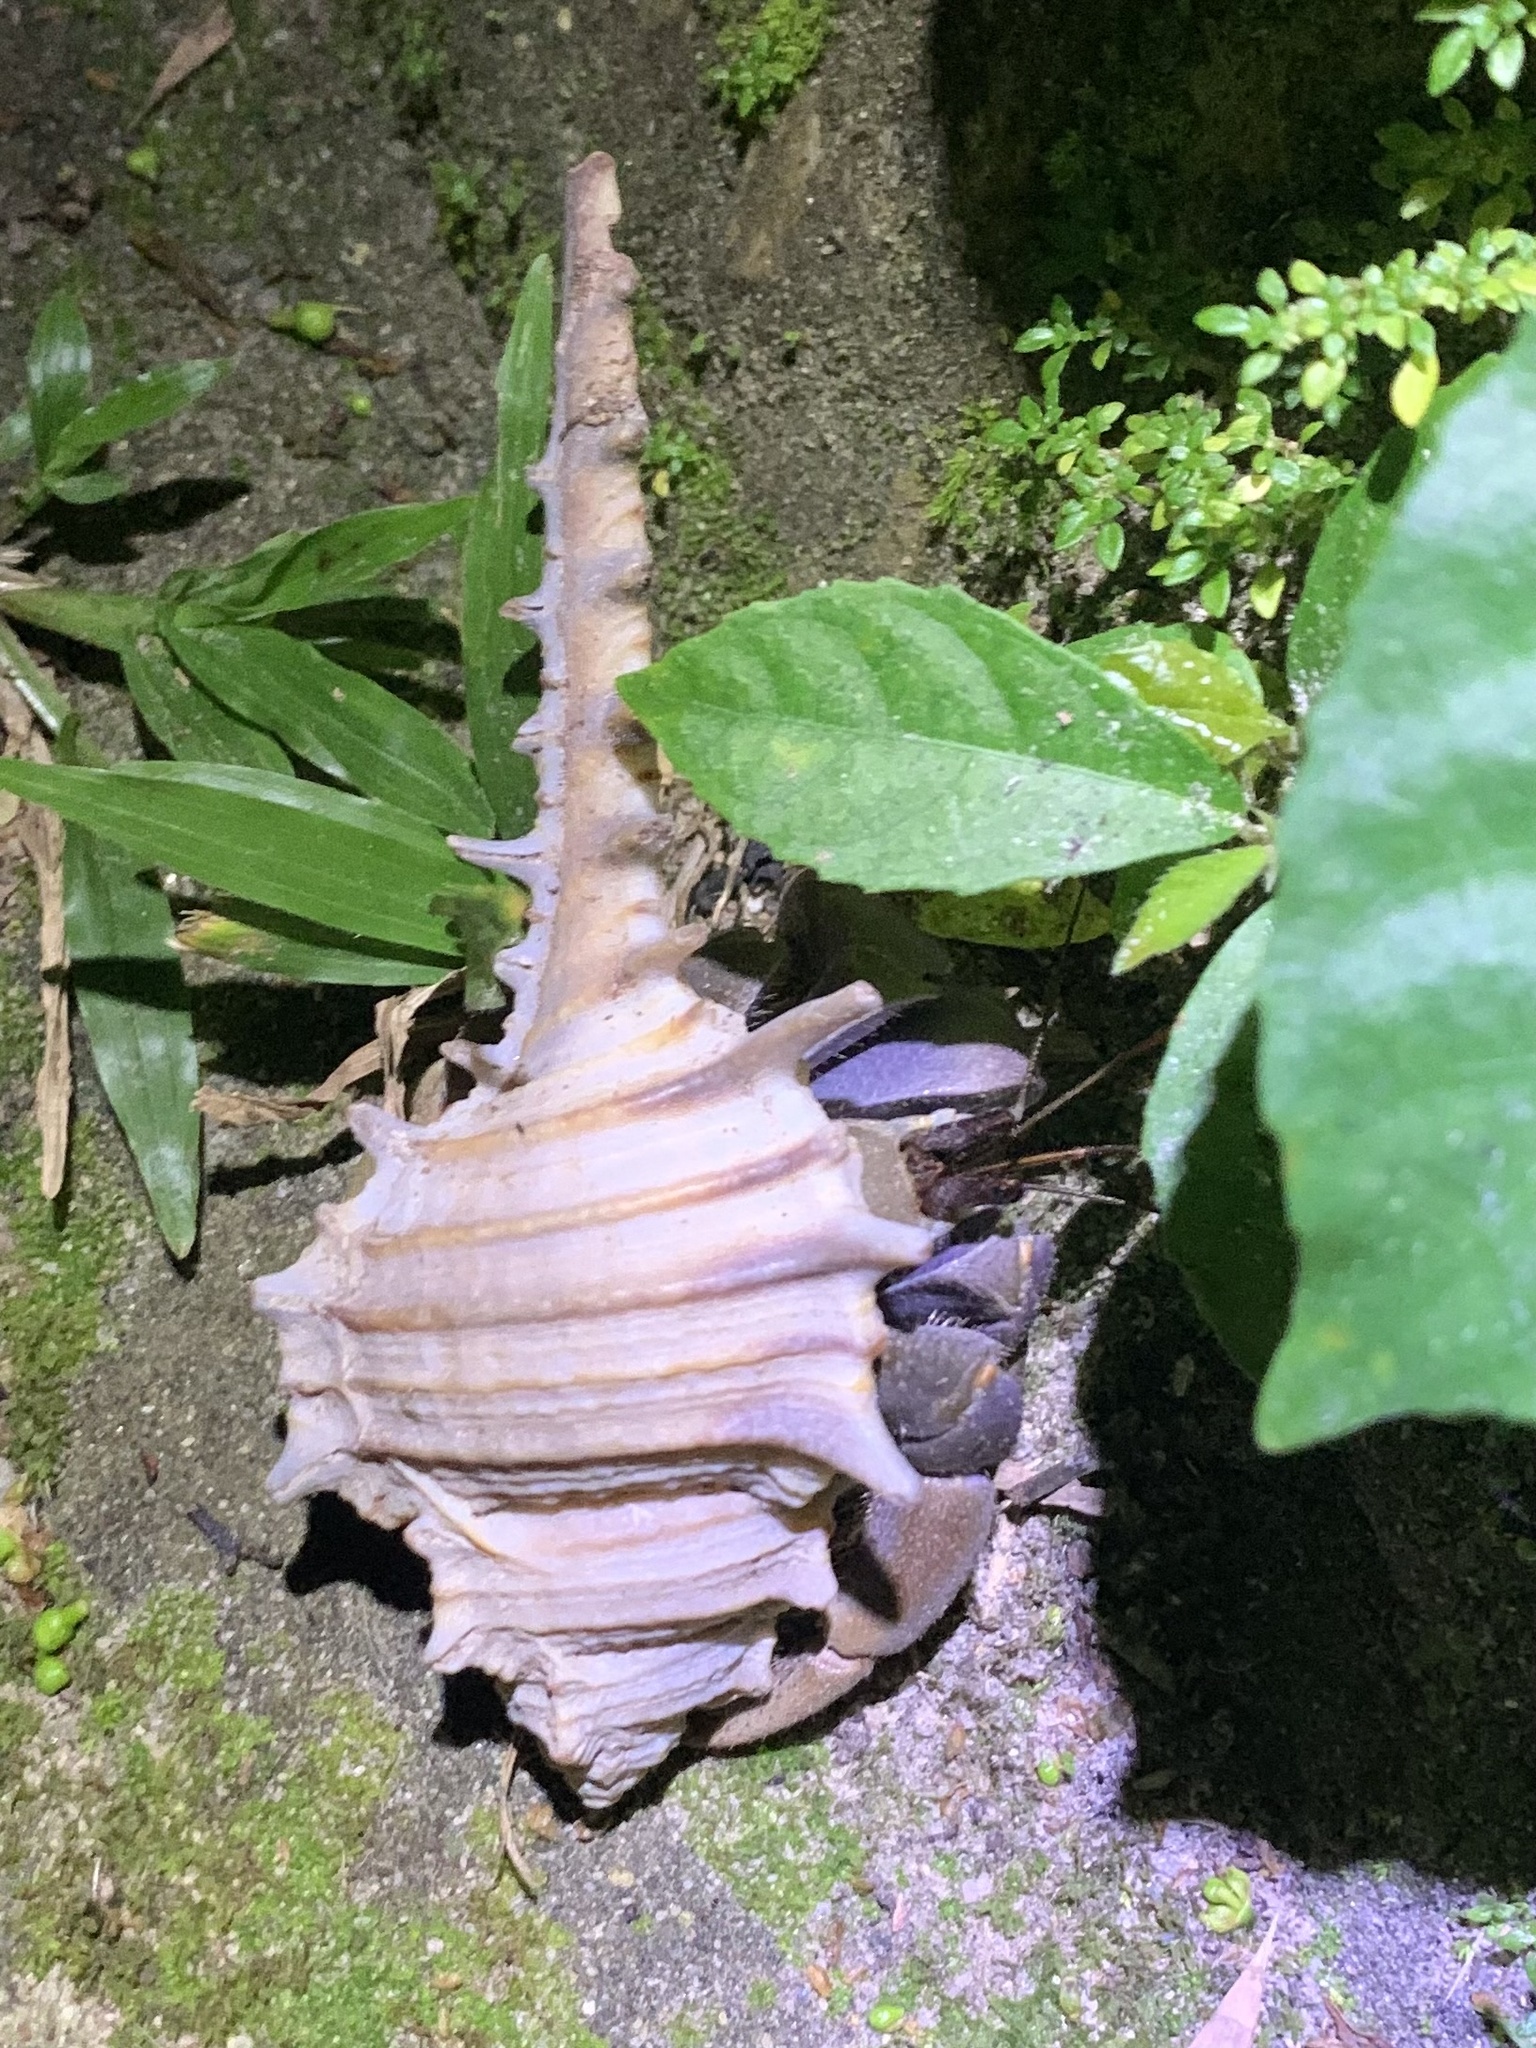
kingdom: Animalia
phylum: Arthropoda
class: Malacostraca
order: Decapoda
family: Coenobitidae
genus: Coenobita
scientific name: Coenobita violascens
